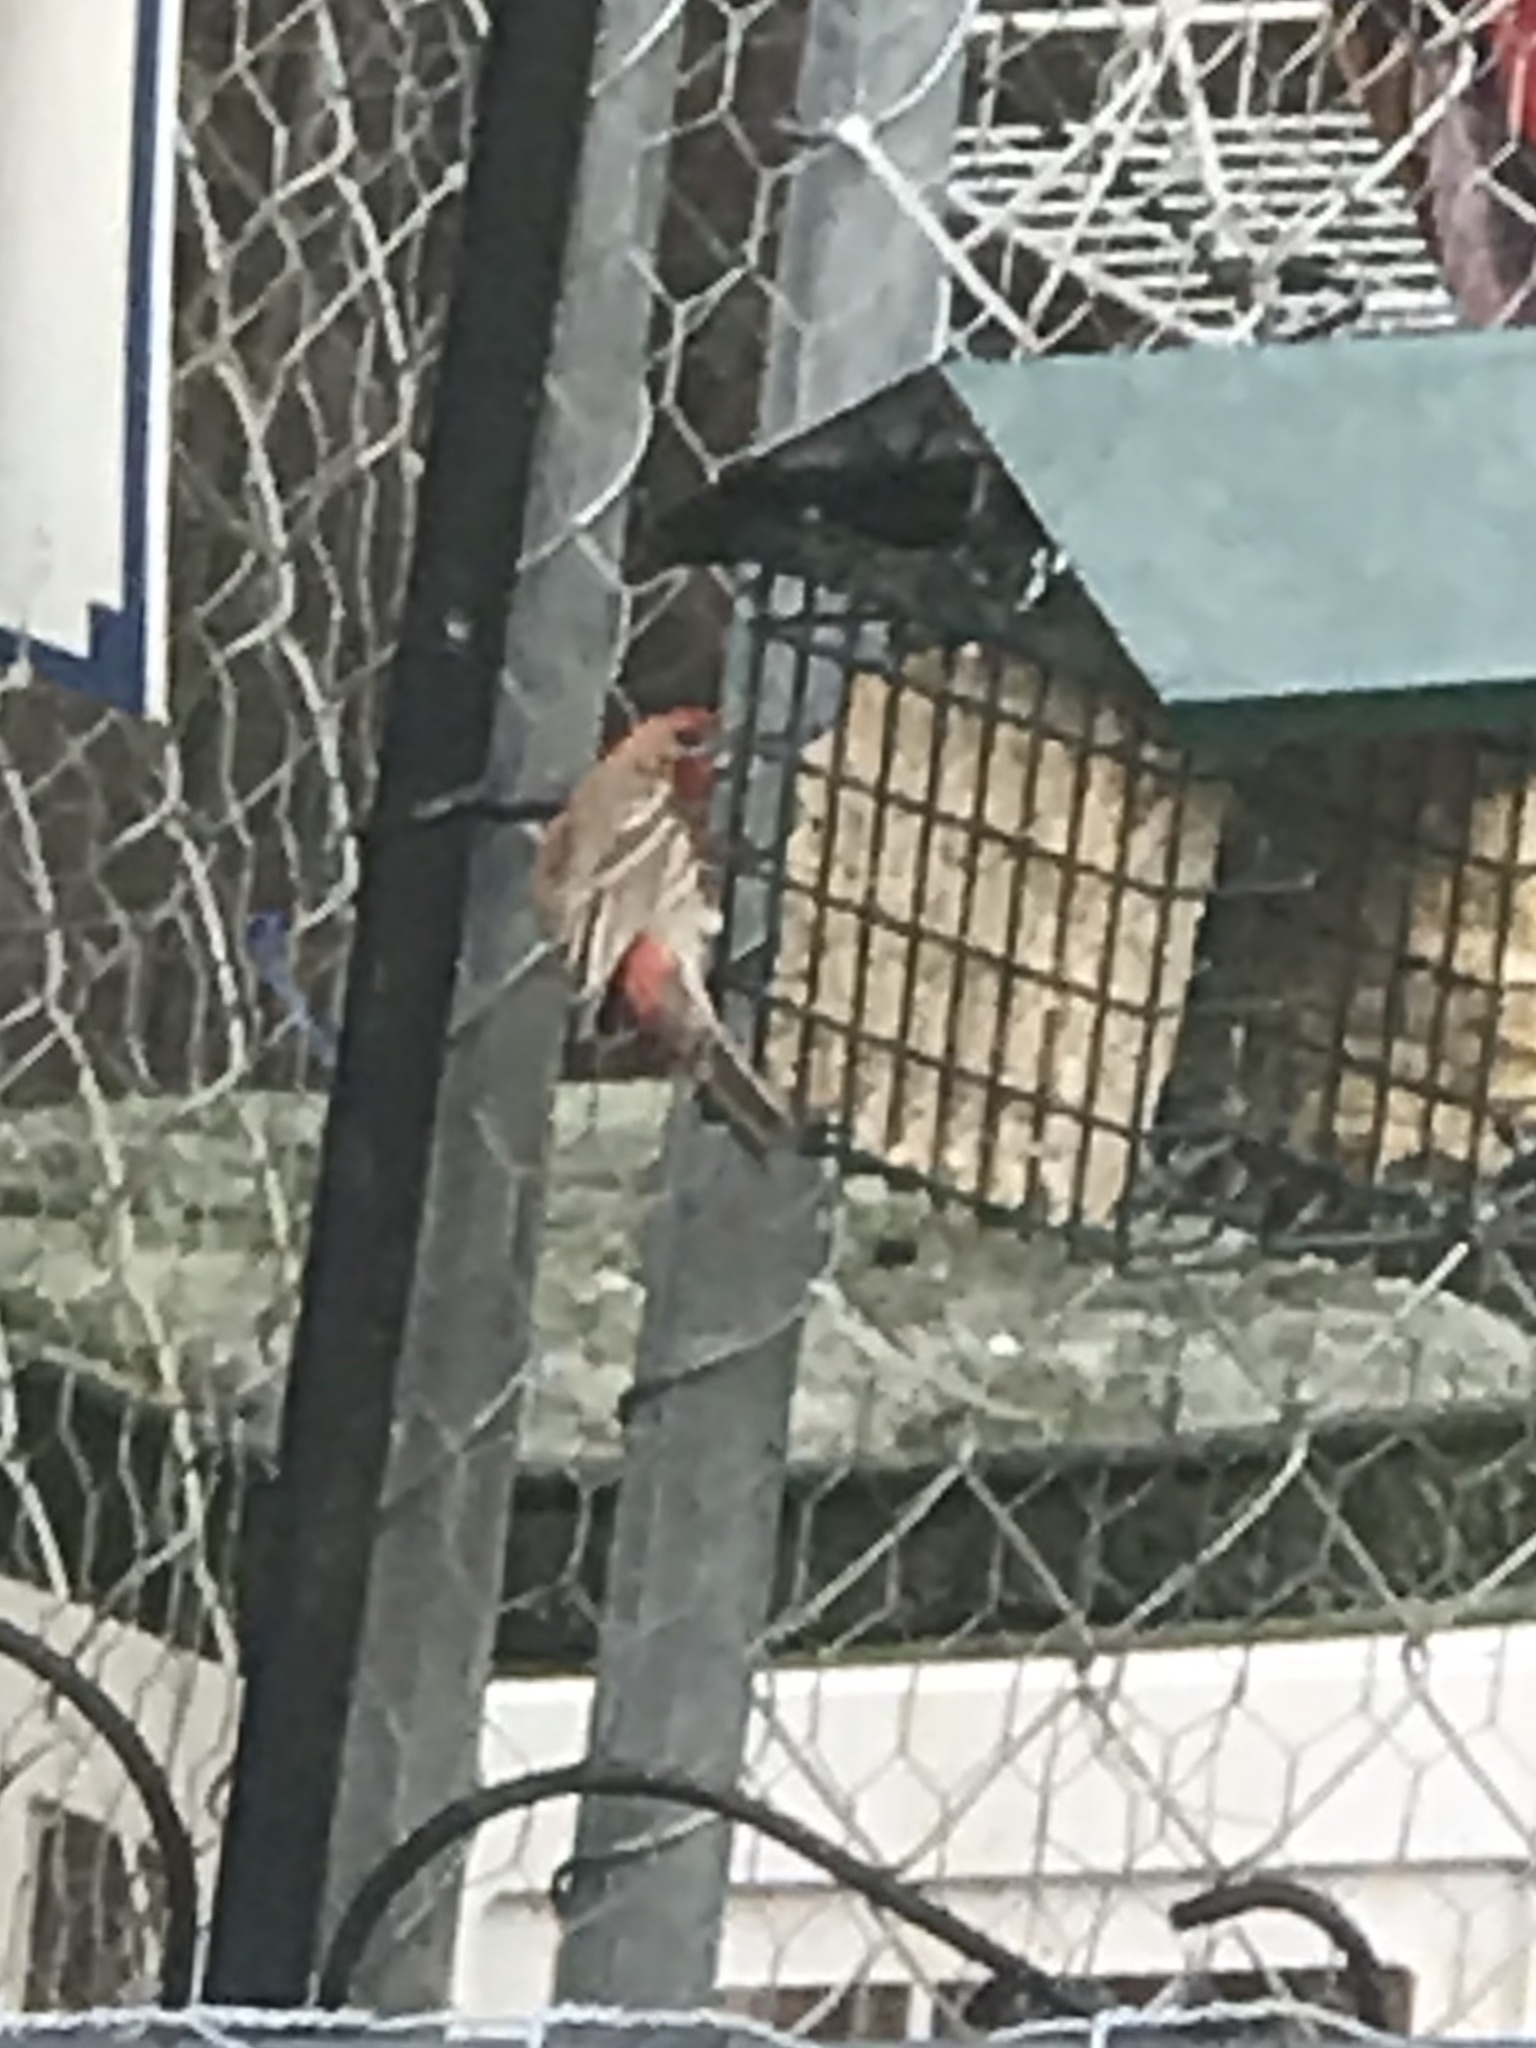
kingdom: Animalia
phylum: Chordata
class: Aves
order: Passeriformes
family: Fringillidae
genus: Haemorhous
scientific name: Haemorhous mexicanus
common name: House finch
